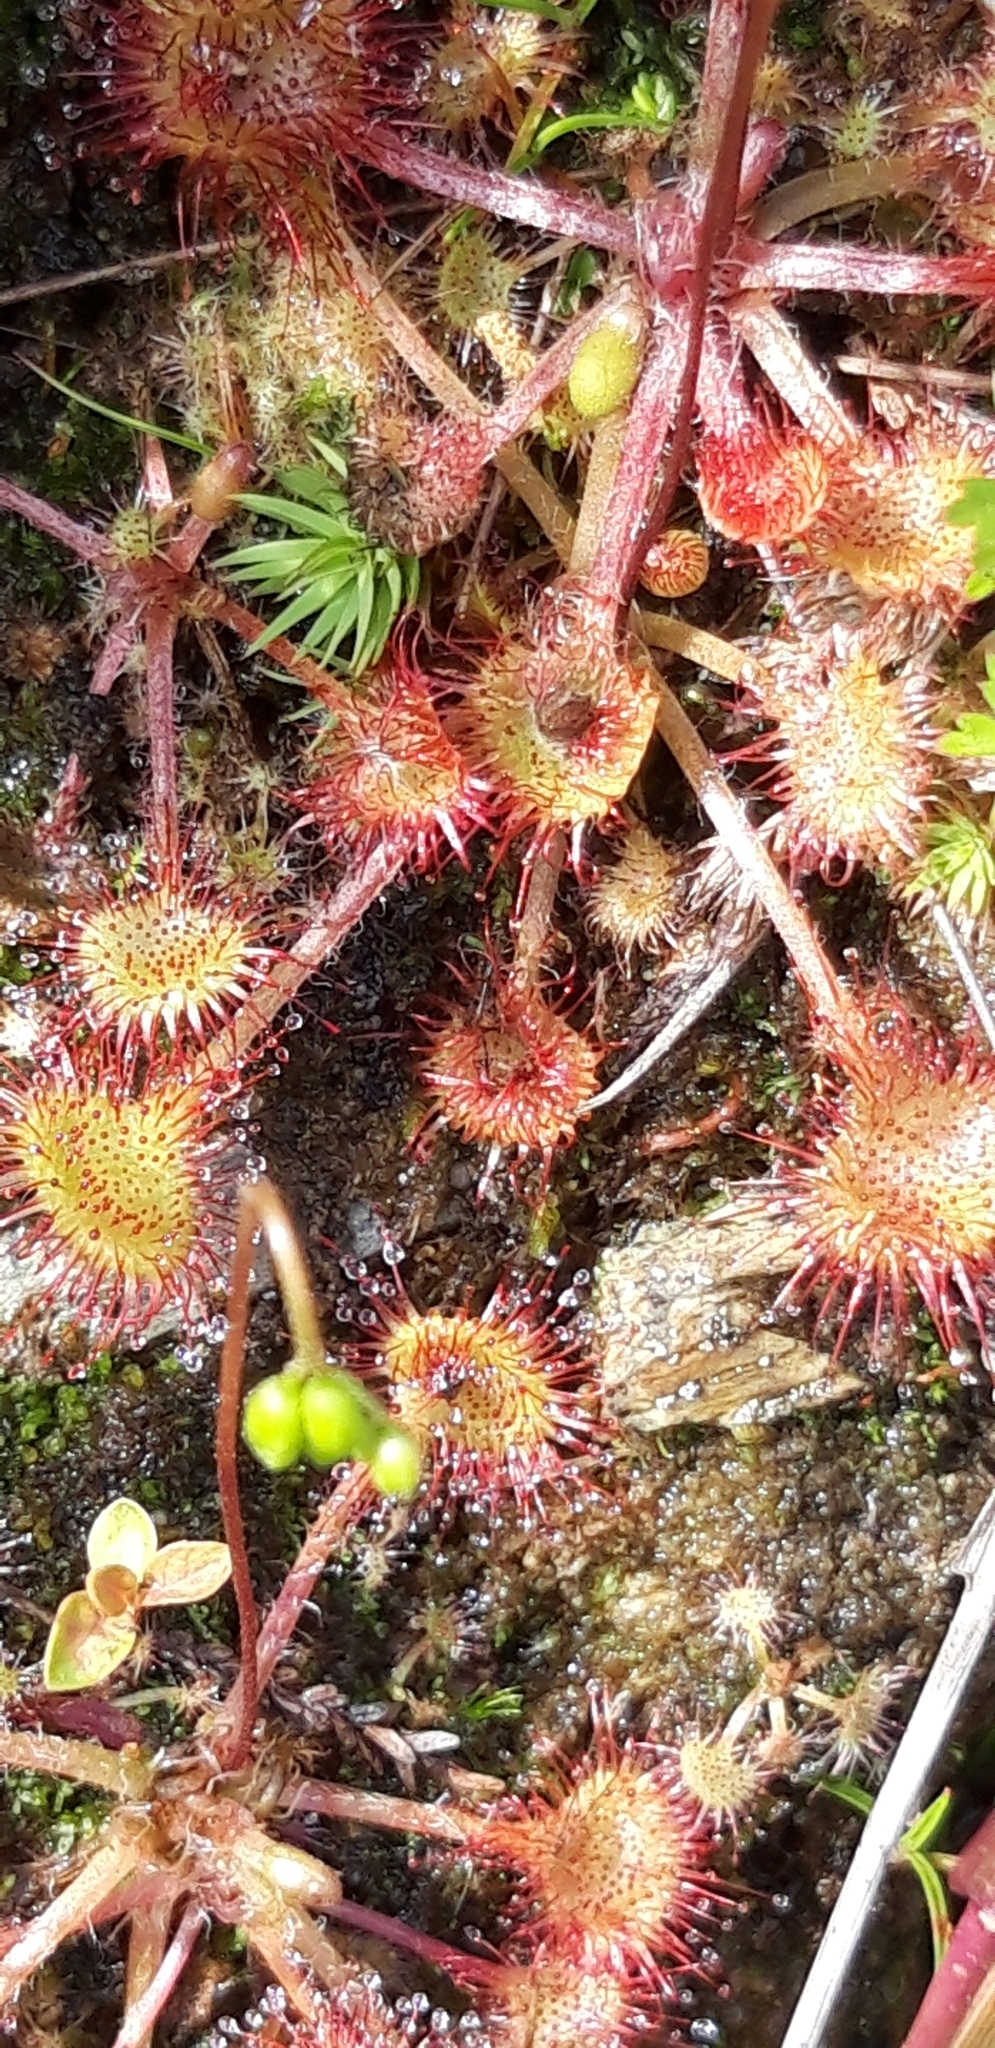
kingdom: Plantae
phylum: Tracheophyta
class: Magnoliopsida
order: Caryophyllales
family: Droseraceae
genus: Drosera
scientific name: Drosera rotundifolia
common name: Round-leaved sundew
